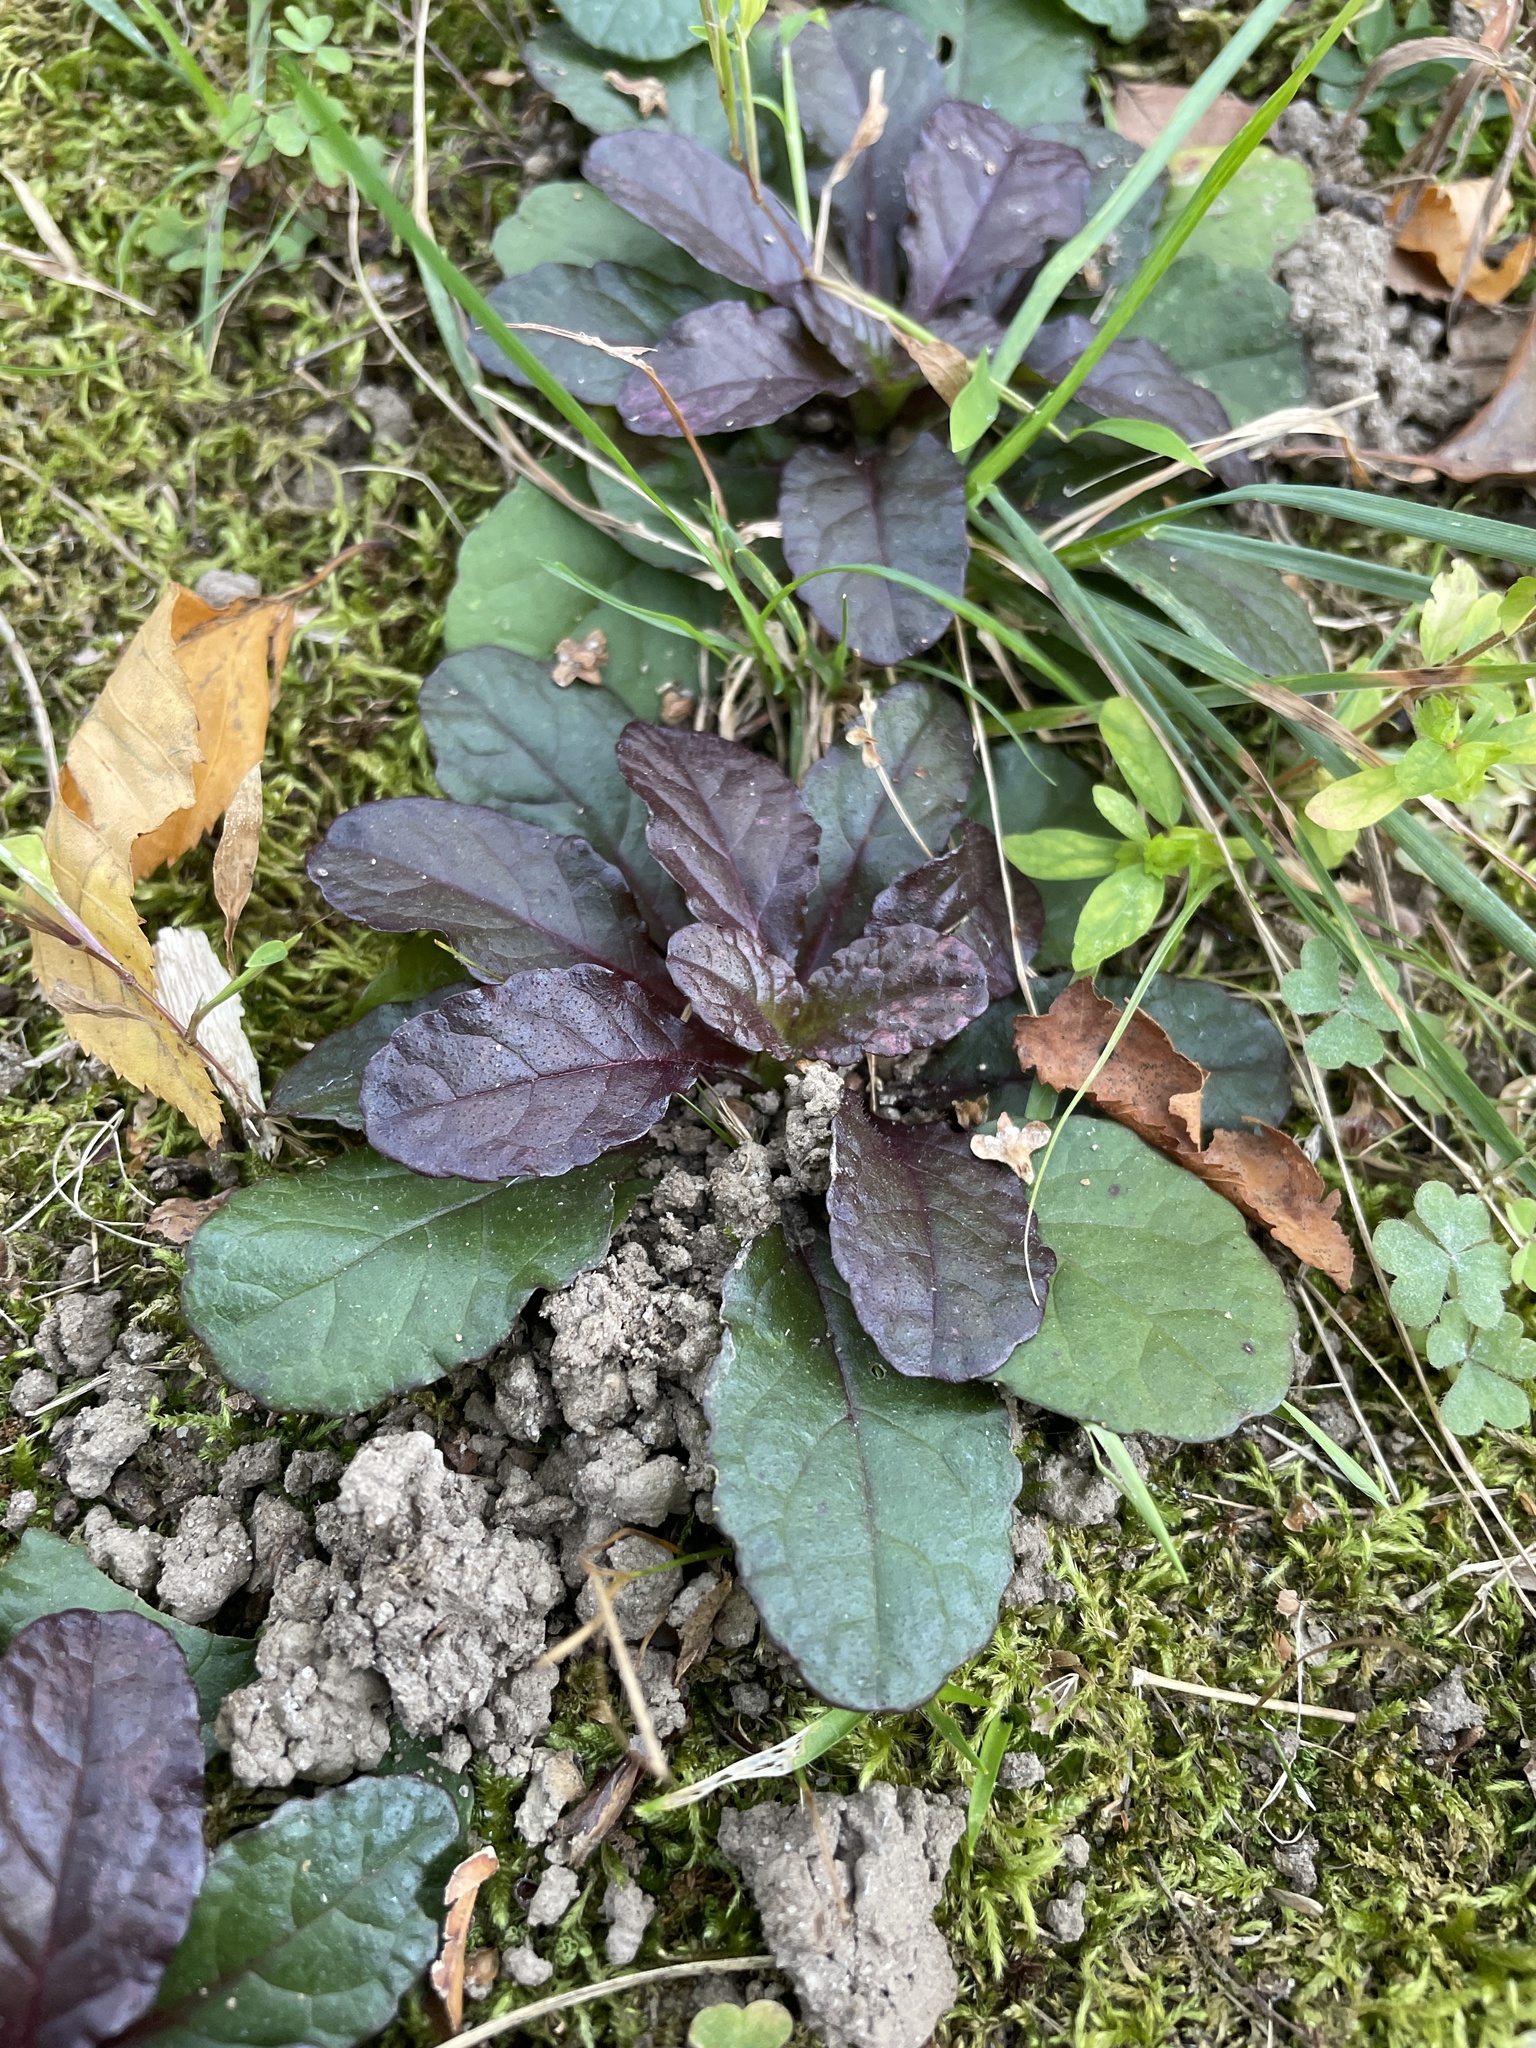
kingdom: Plantae
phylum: Tracheophyta
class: Magnoliopsida
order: Lamiales
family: Lamiaceae
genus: Ajuga
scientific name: Ajuga reptans
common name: Bugle
